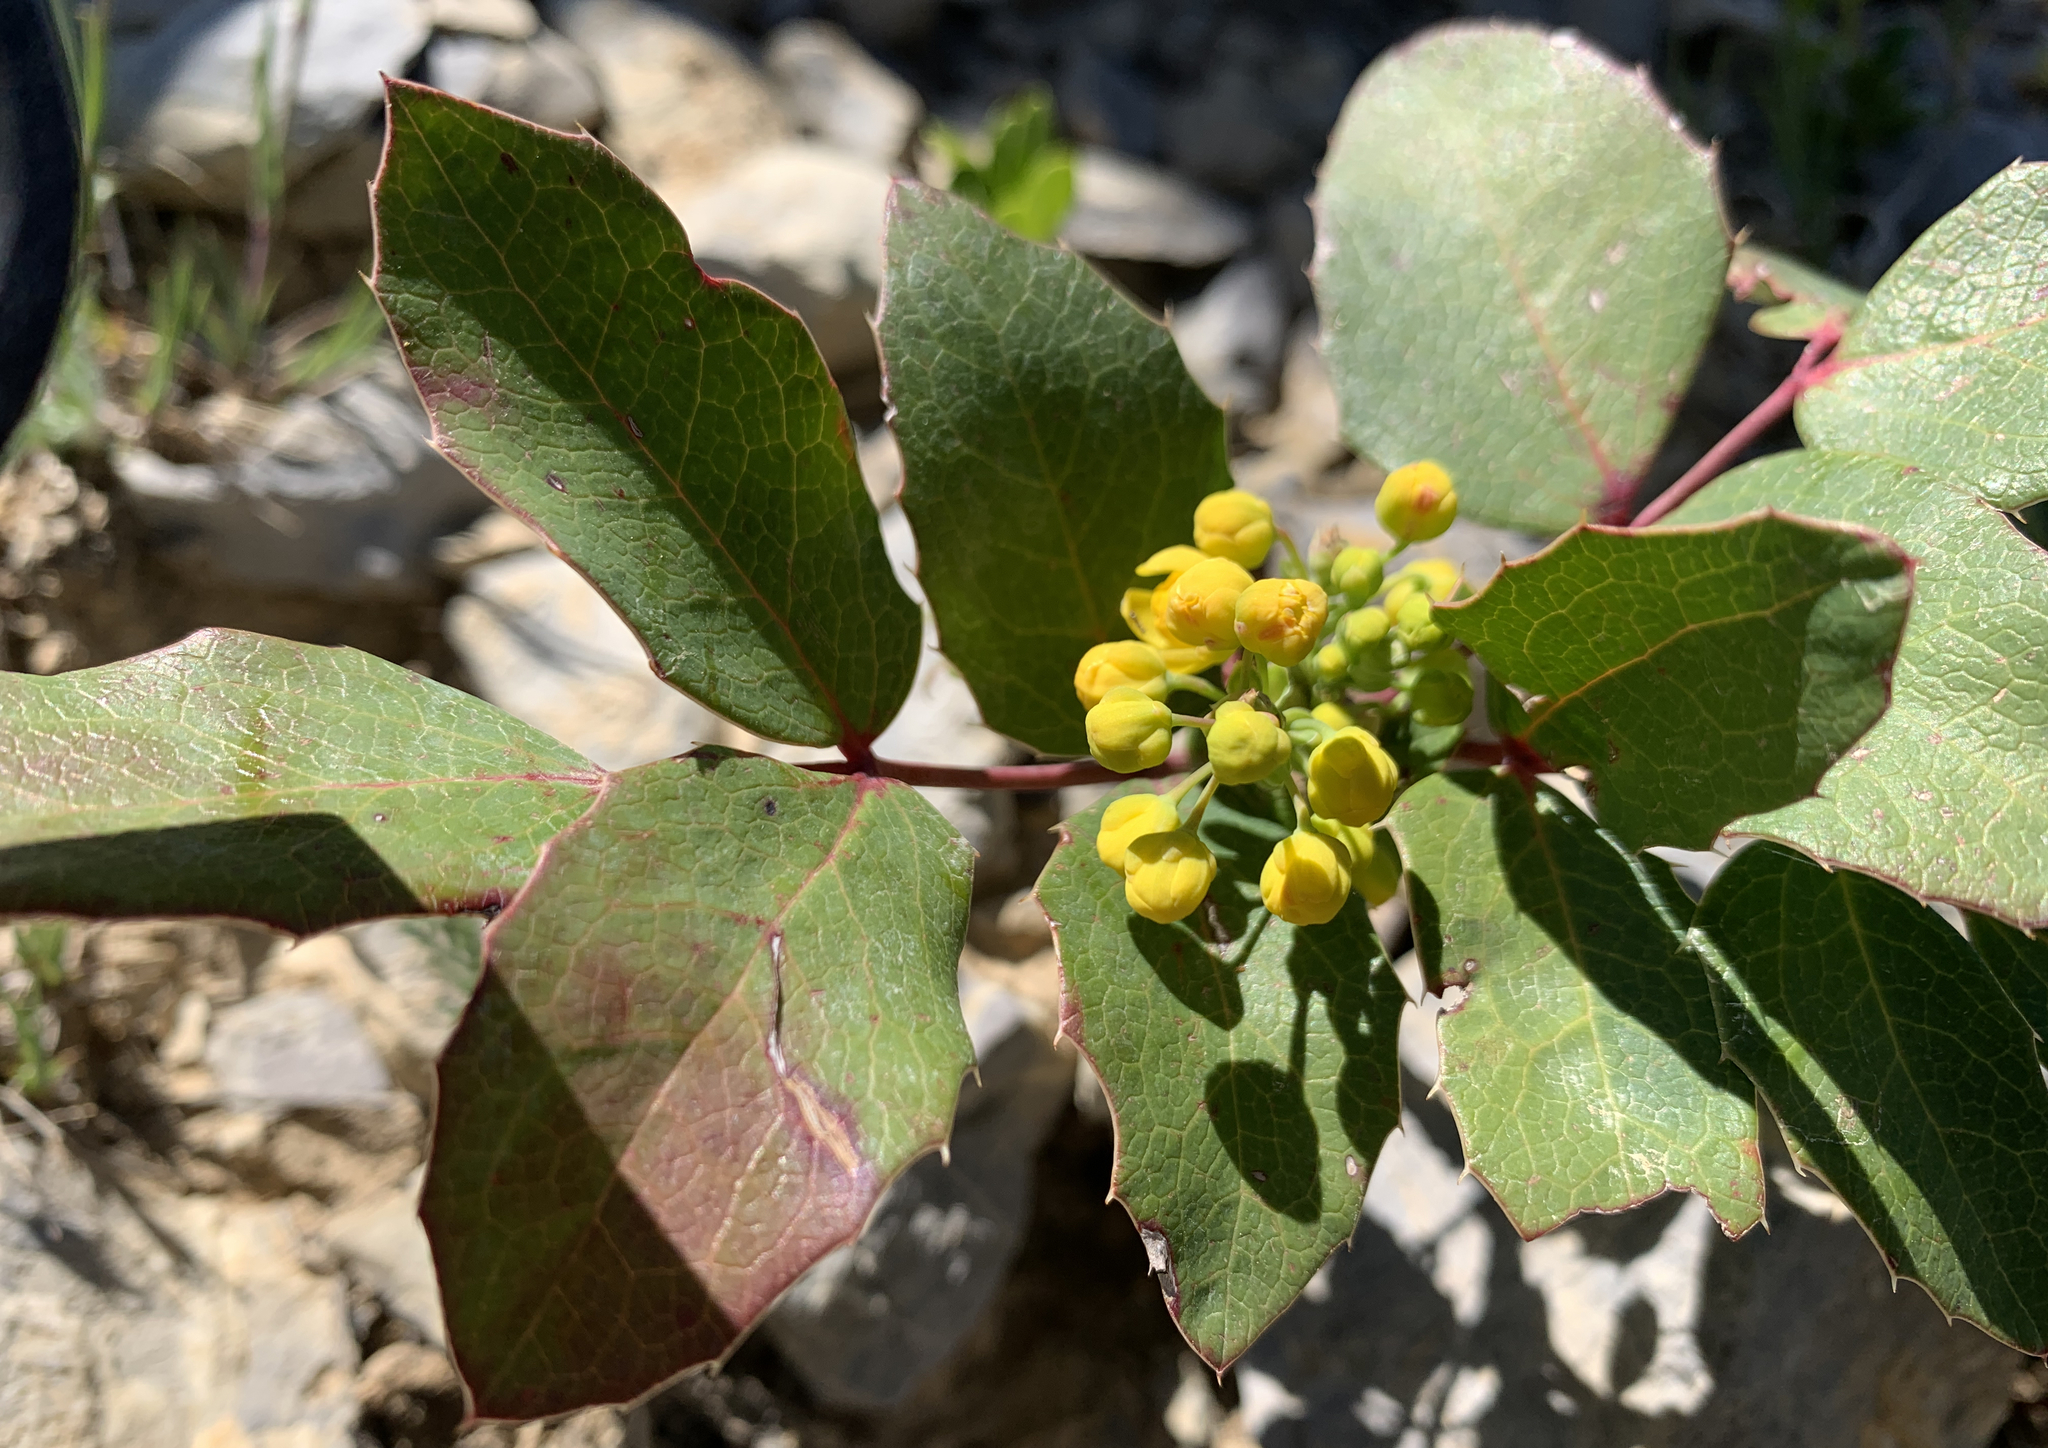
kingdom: Plantae
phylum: Tracheophyta
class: Magnoliopsida
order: Ranunculales
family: Berberidaceae
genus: Mahonia
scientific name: Mahonia repens
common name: Creeping oregon-grape
